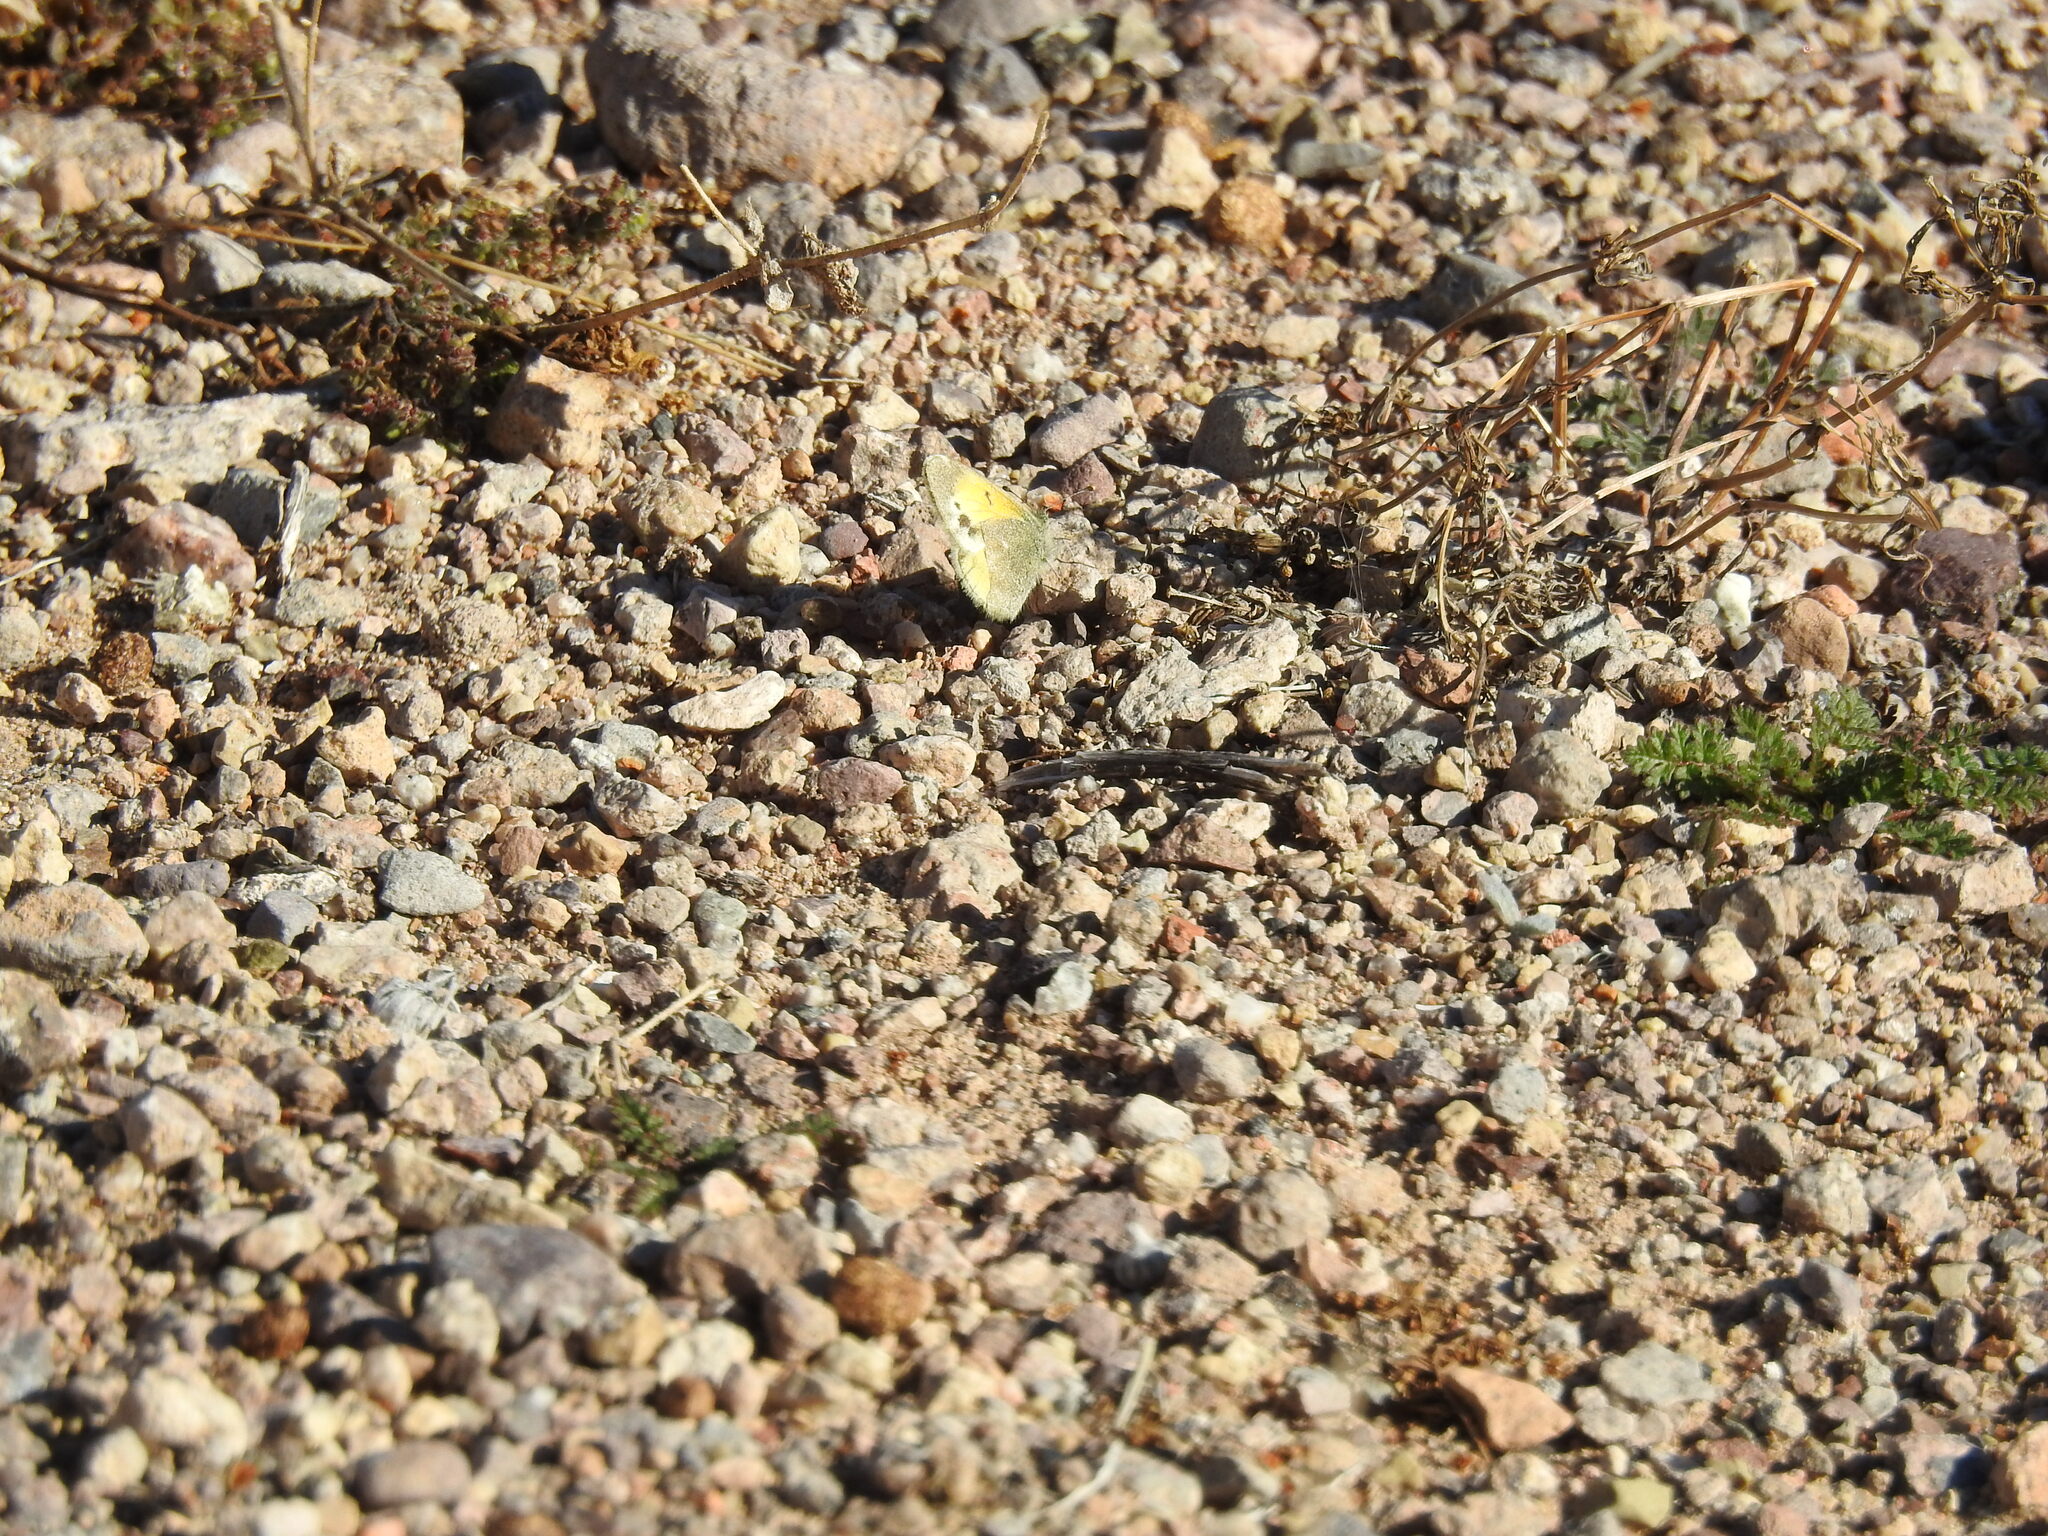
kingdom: Animalia
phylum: Arthropoda
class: Insecta
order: Lepidoptera
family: Pieridae
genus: Nathalis
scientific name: Nathalis iole
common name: Dainty sulphur
